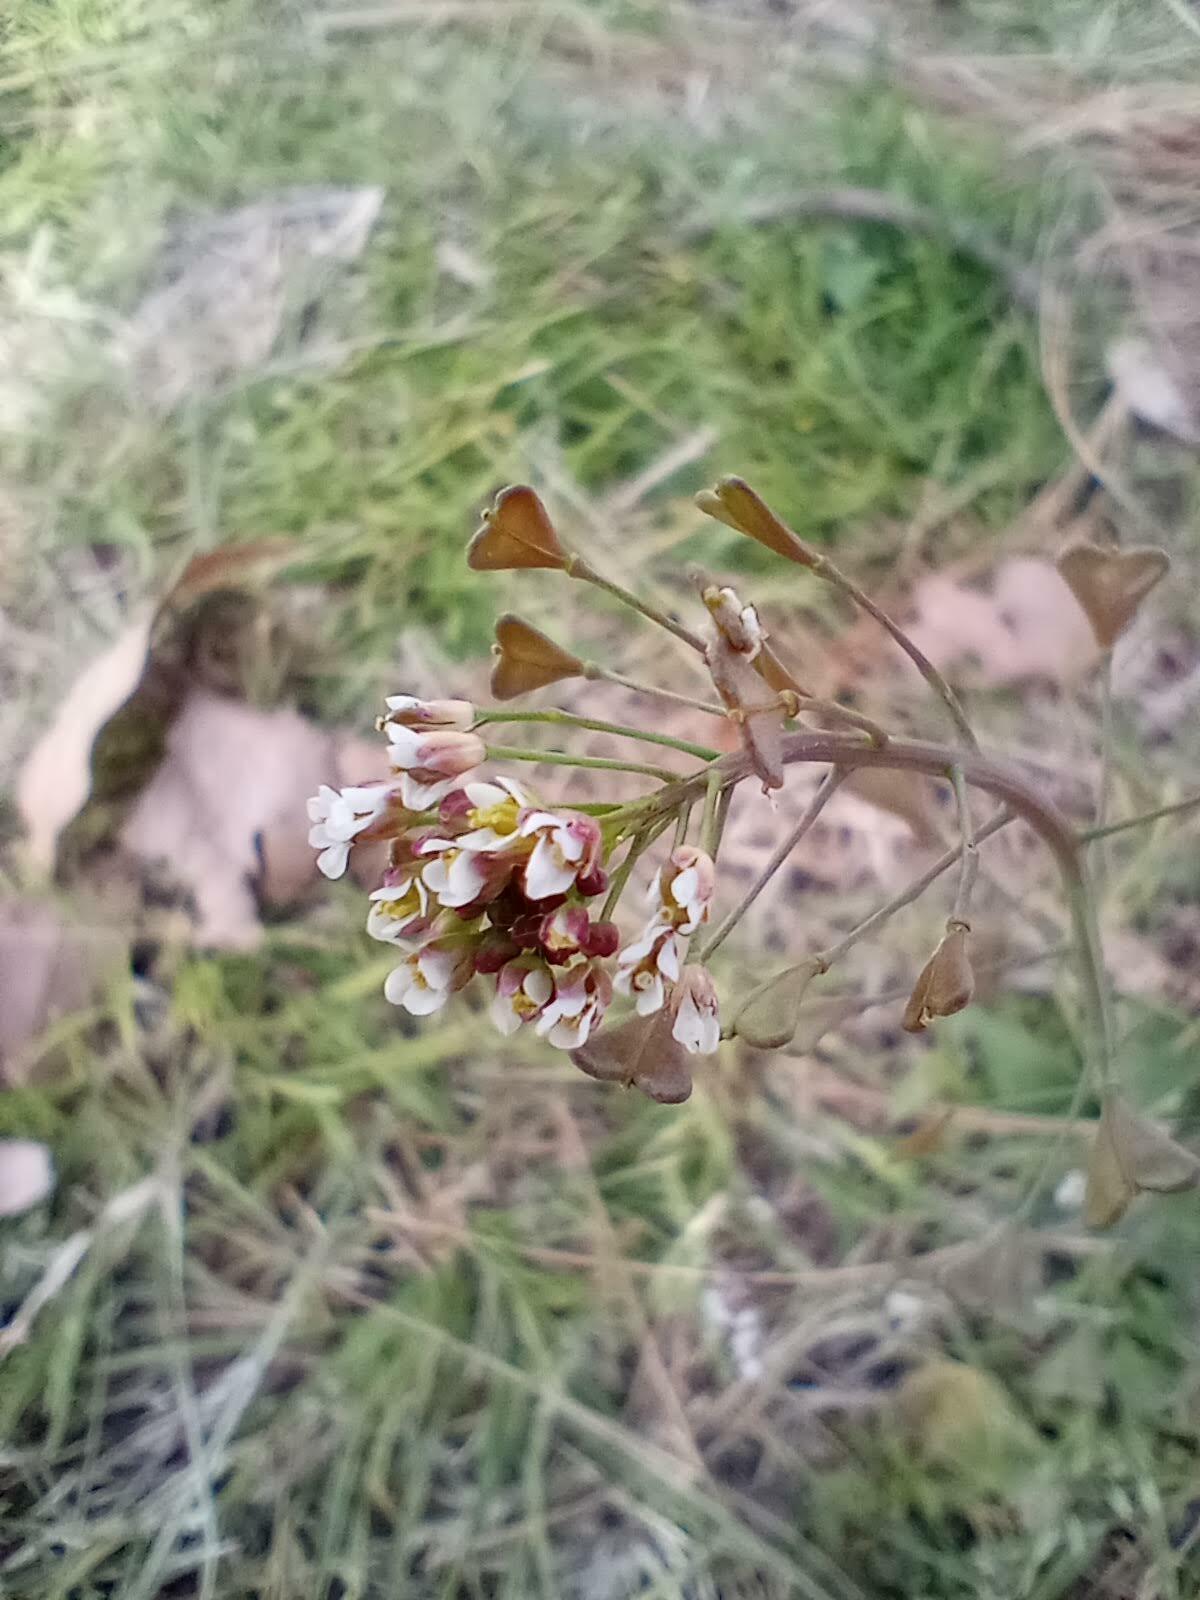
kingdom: Plantae
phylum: Tracheophyta
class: Magnoliopsida
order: Brassicales
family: Brassicaceae
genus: Capsella
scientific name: Capsella bursa-pastoris
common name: Shepherd's purse
